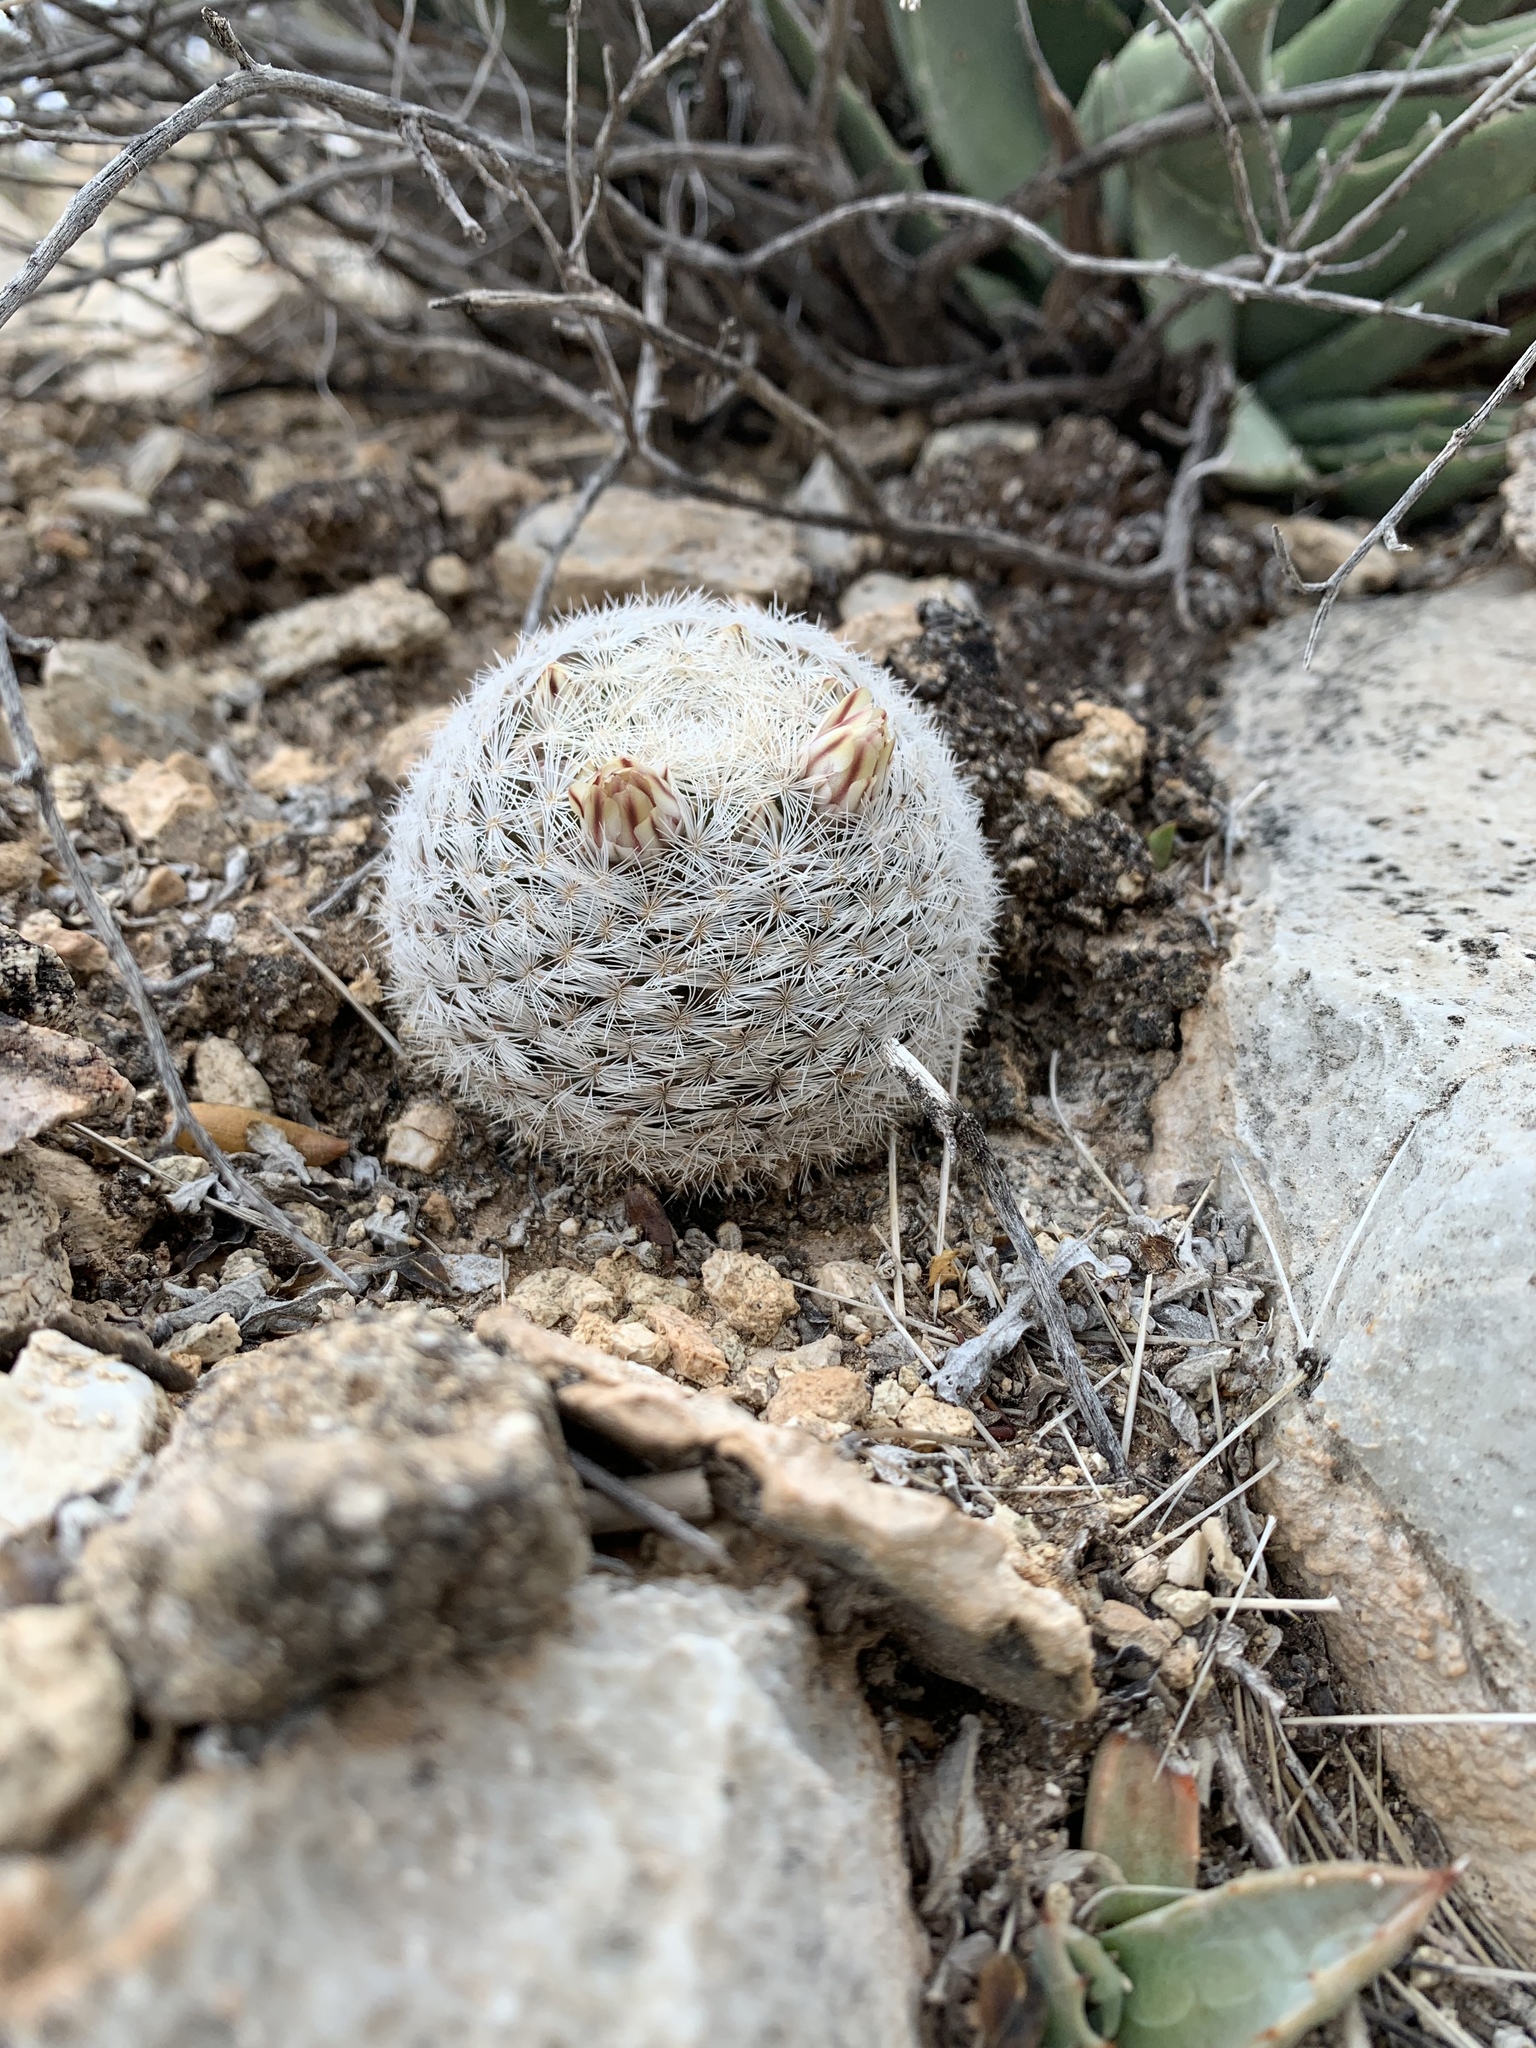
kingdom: Plantae
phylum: Tracheophyta
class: Magnoliopsida
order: Caryophyllales
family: Cactaceae
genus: Mammillaria
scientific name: Mammillaria lasiacantha
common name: Lace-spine nipple cactus
